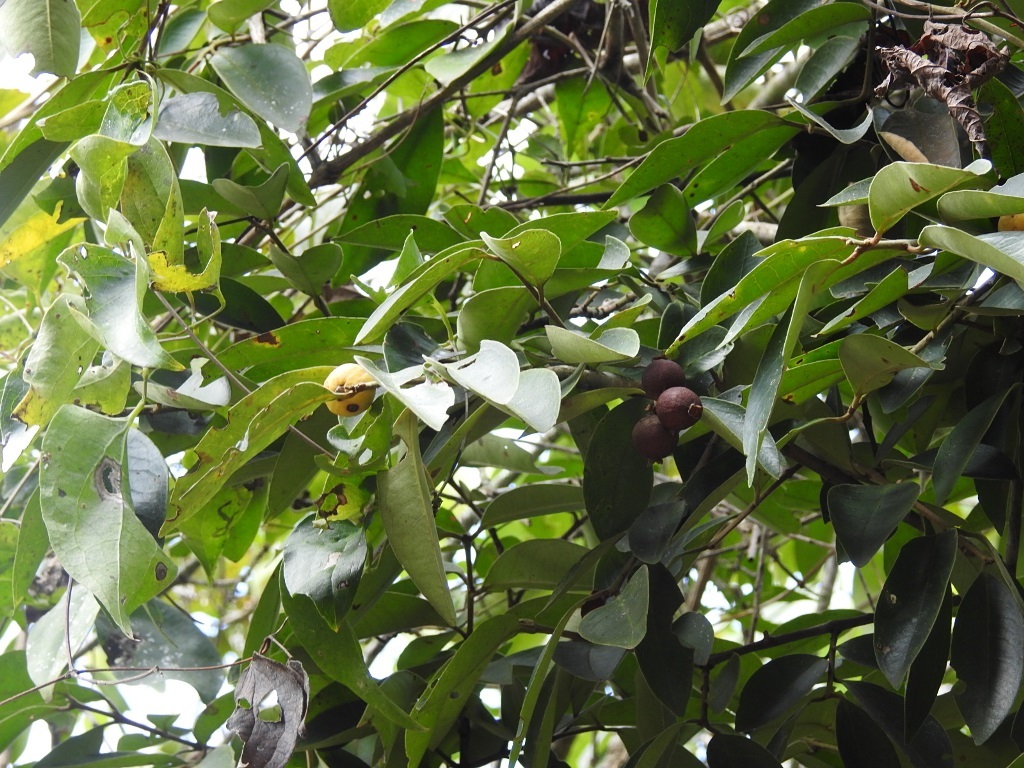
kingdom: Plantae
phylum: Tracheophyta
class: Magnoliopsida
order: Myrtales
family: Myrtaceae
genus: Eugenia
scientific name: Eugenia capulioides
